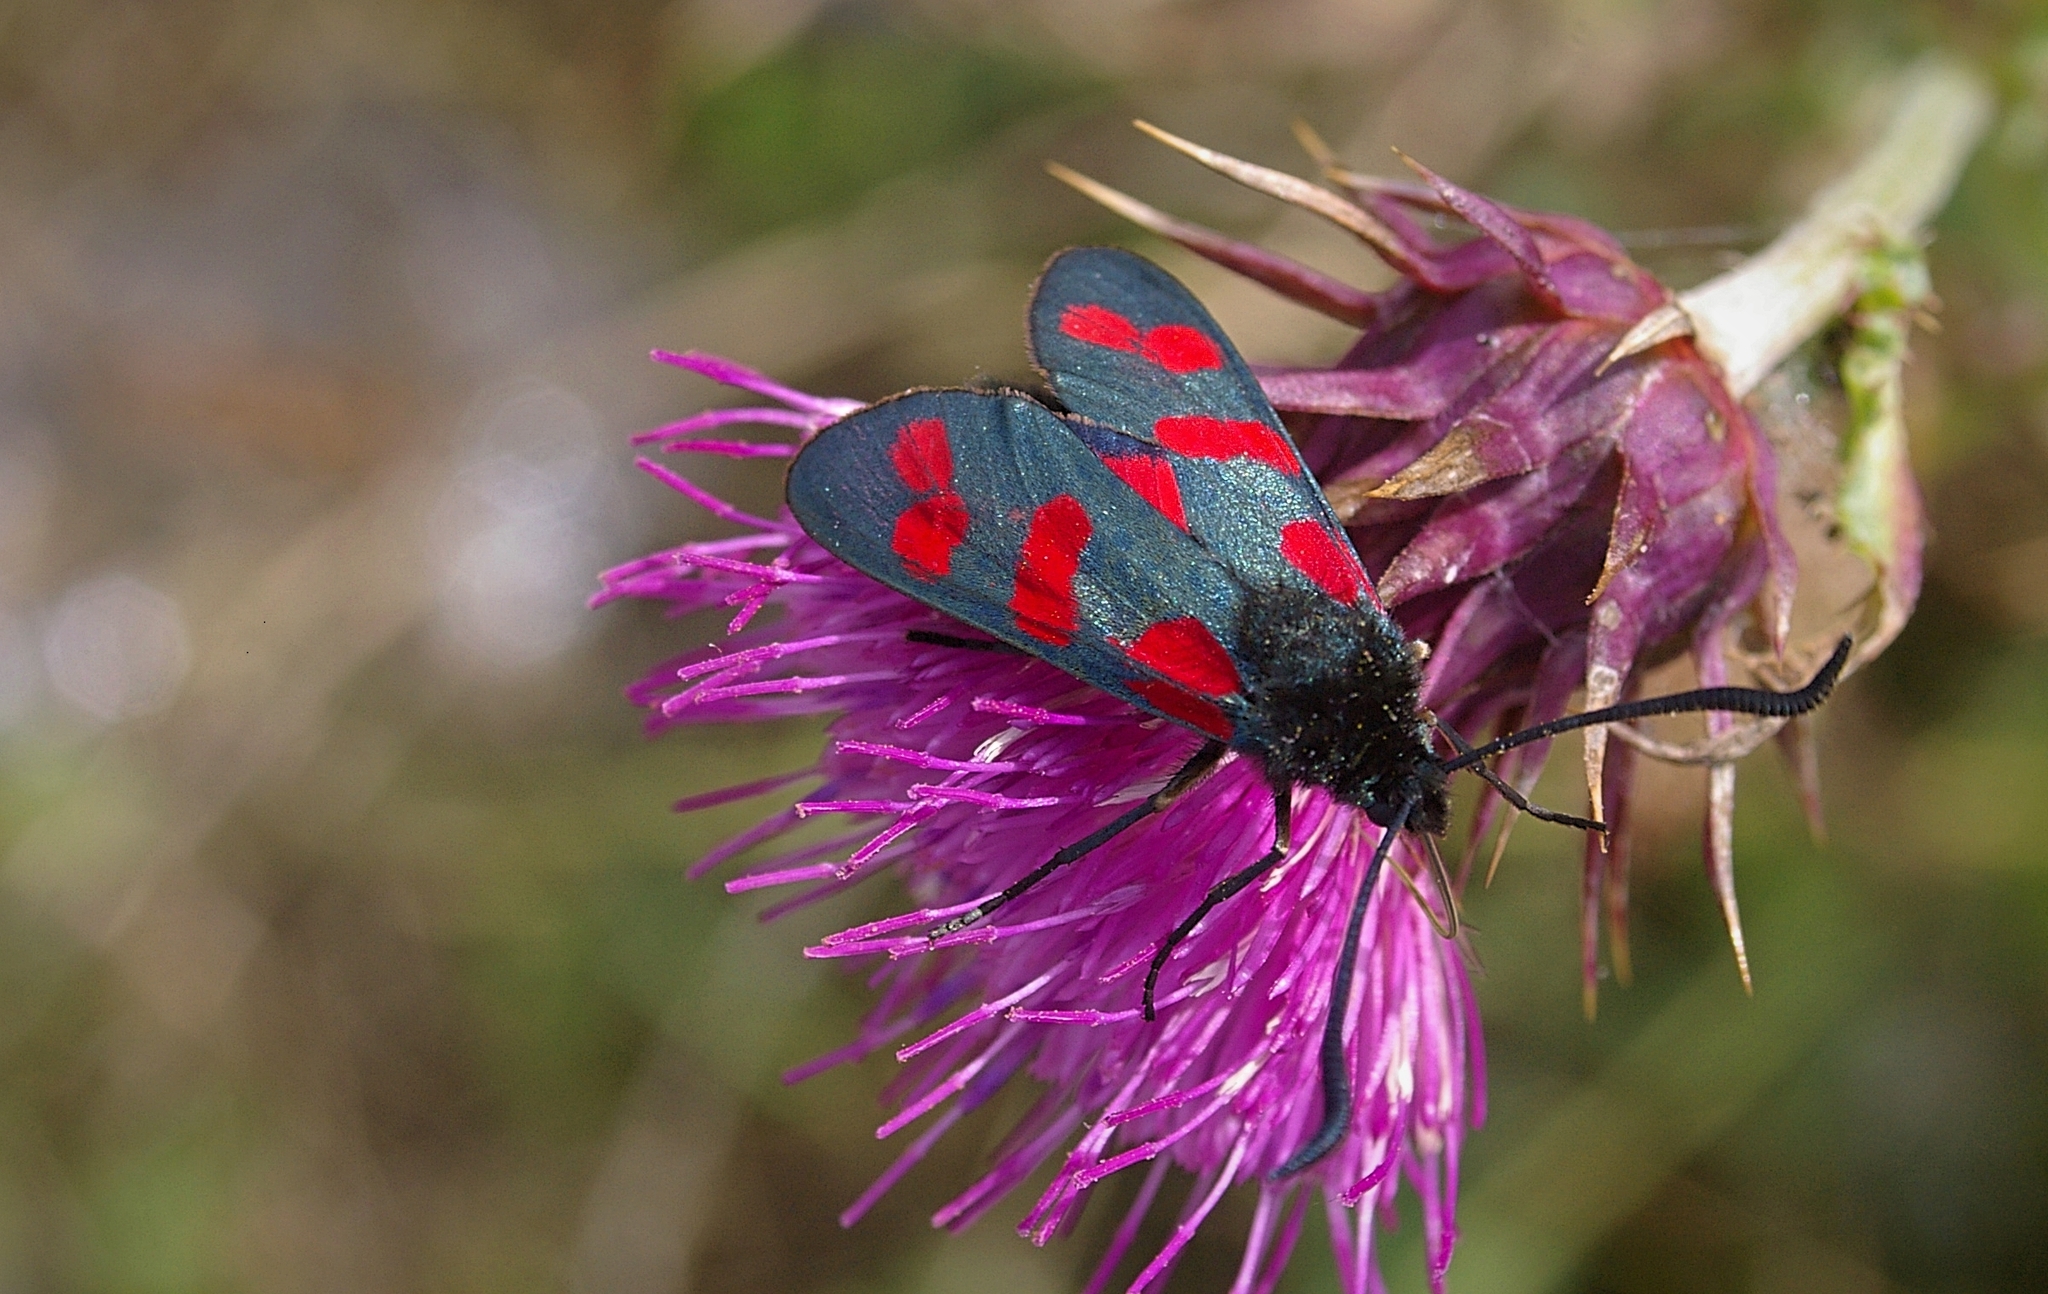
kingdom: Animalia
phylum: Arthropoda
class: Insecta
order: Lepidoptera
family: Zygaenidae
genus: Zygaena
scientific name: Zygaena filipendulae
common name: Six-spot burnet
